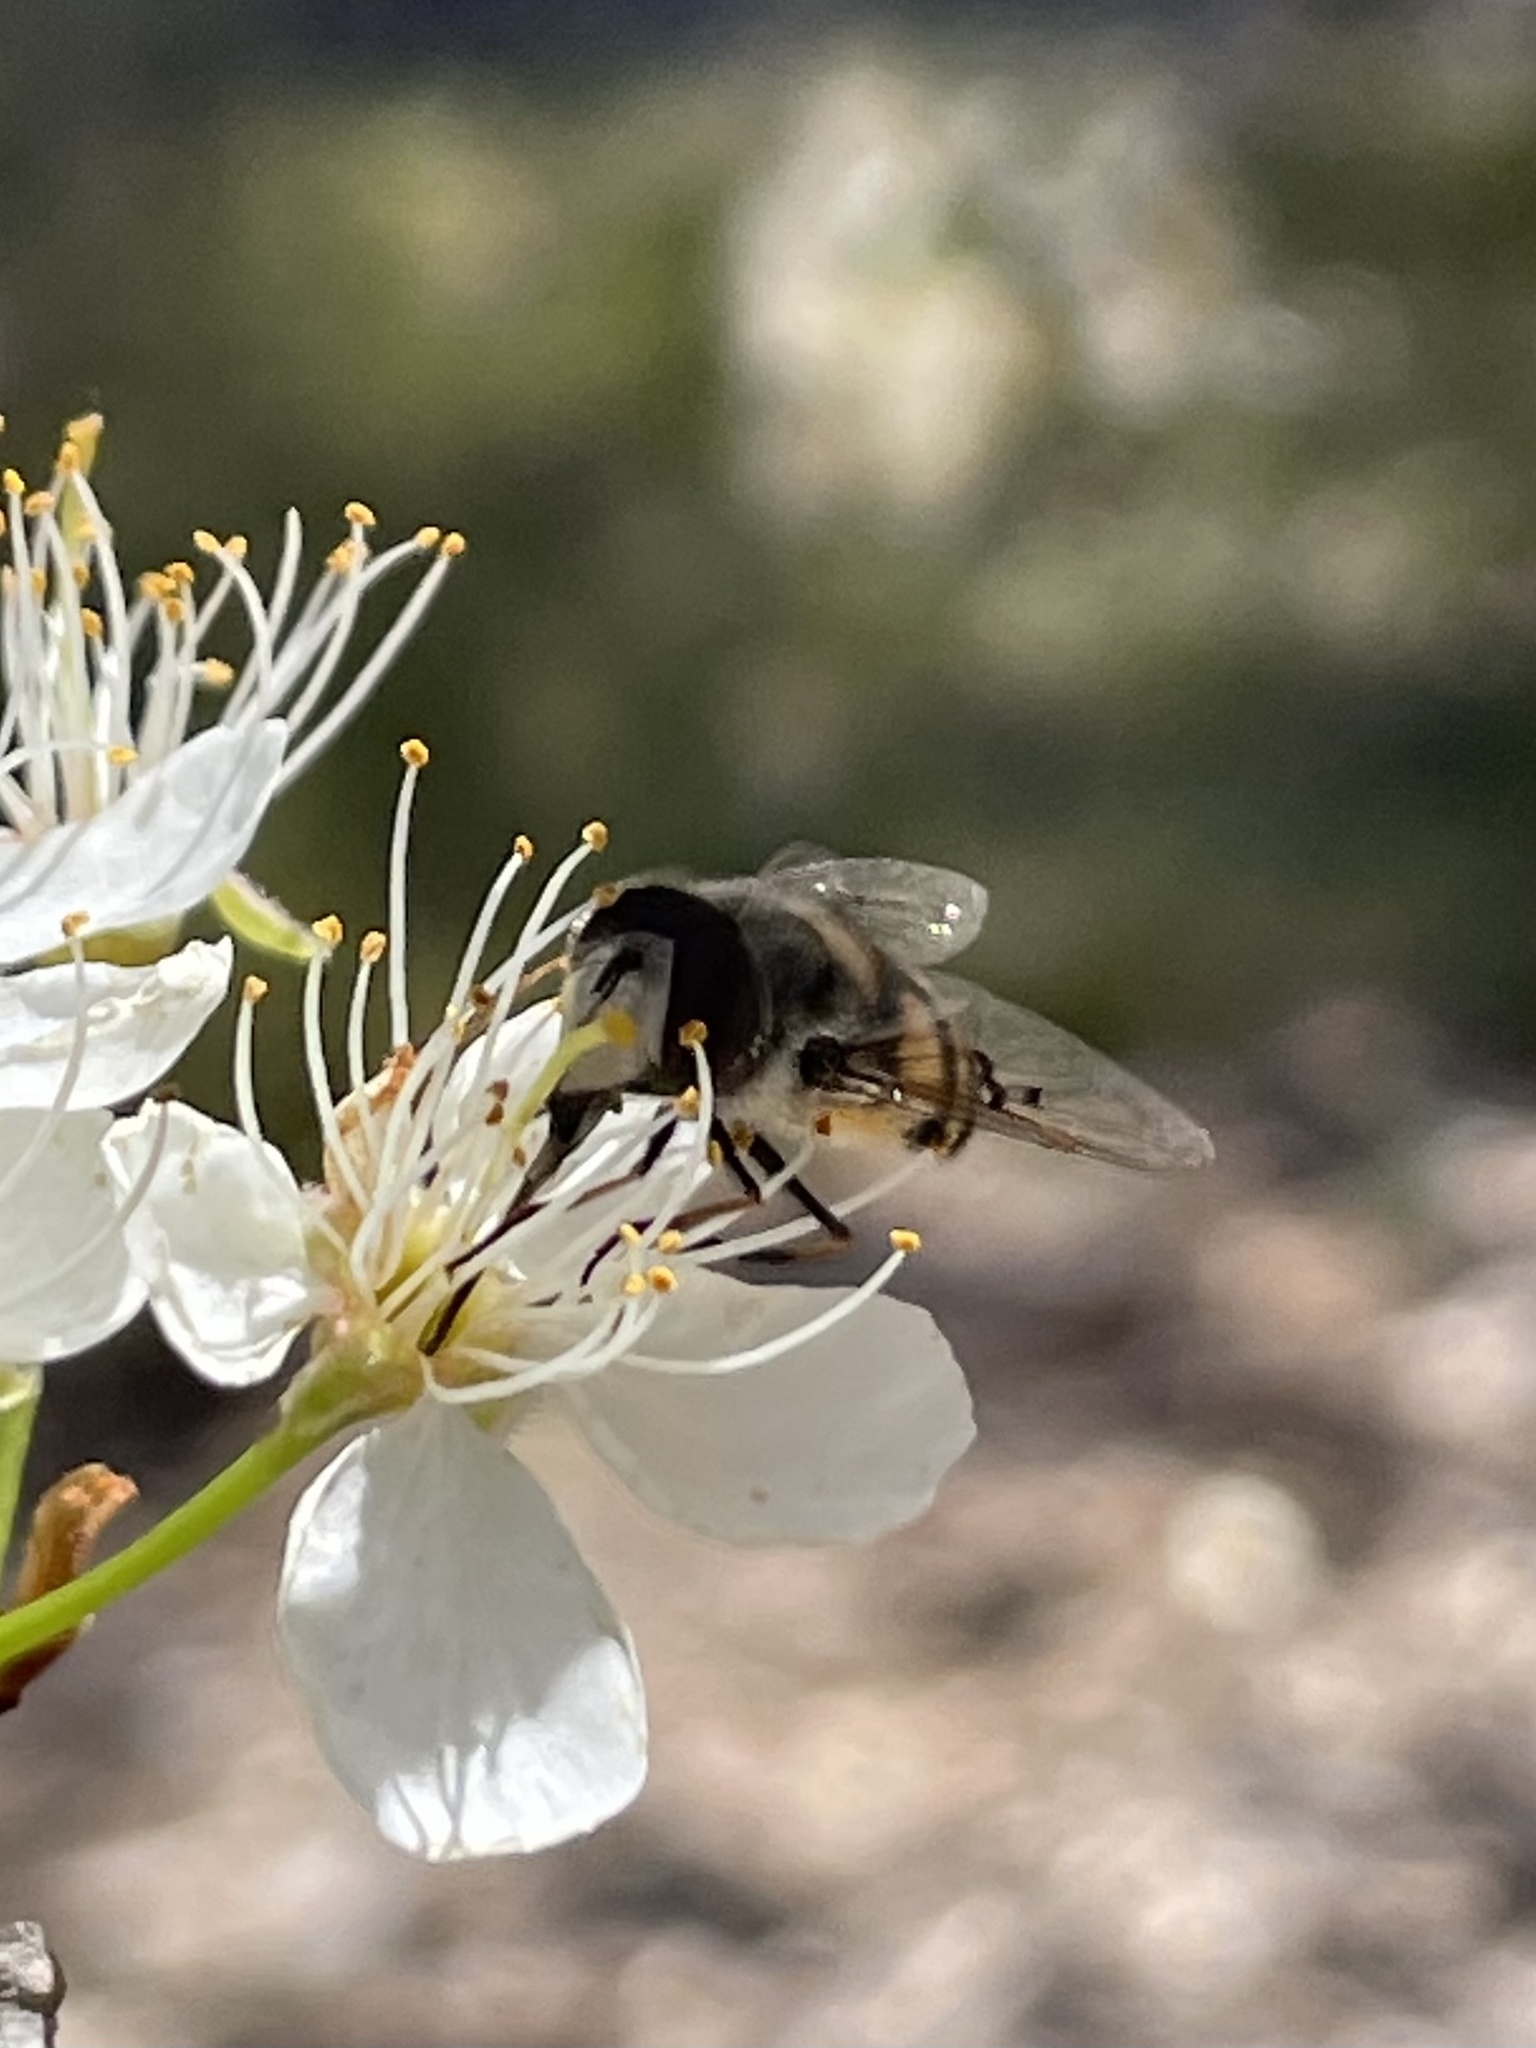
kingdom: Animalia
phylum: Arthropoda
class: Insecta
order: Diptera
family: Syrphidae
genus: Copestylum
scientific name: Copestylum avidum
